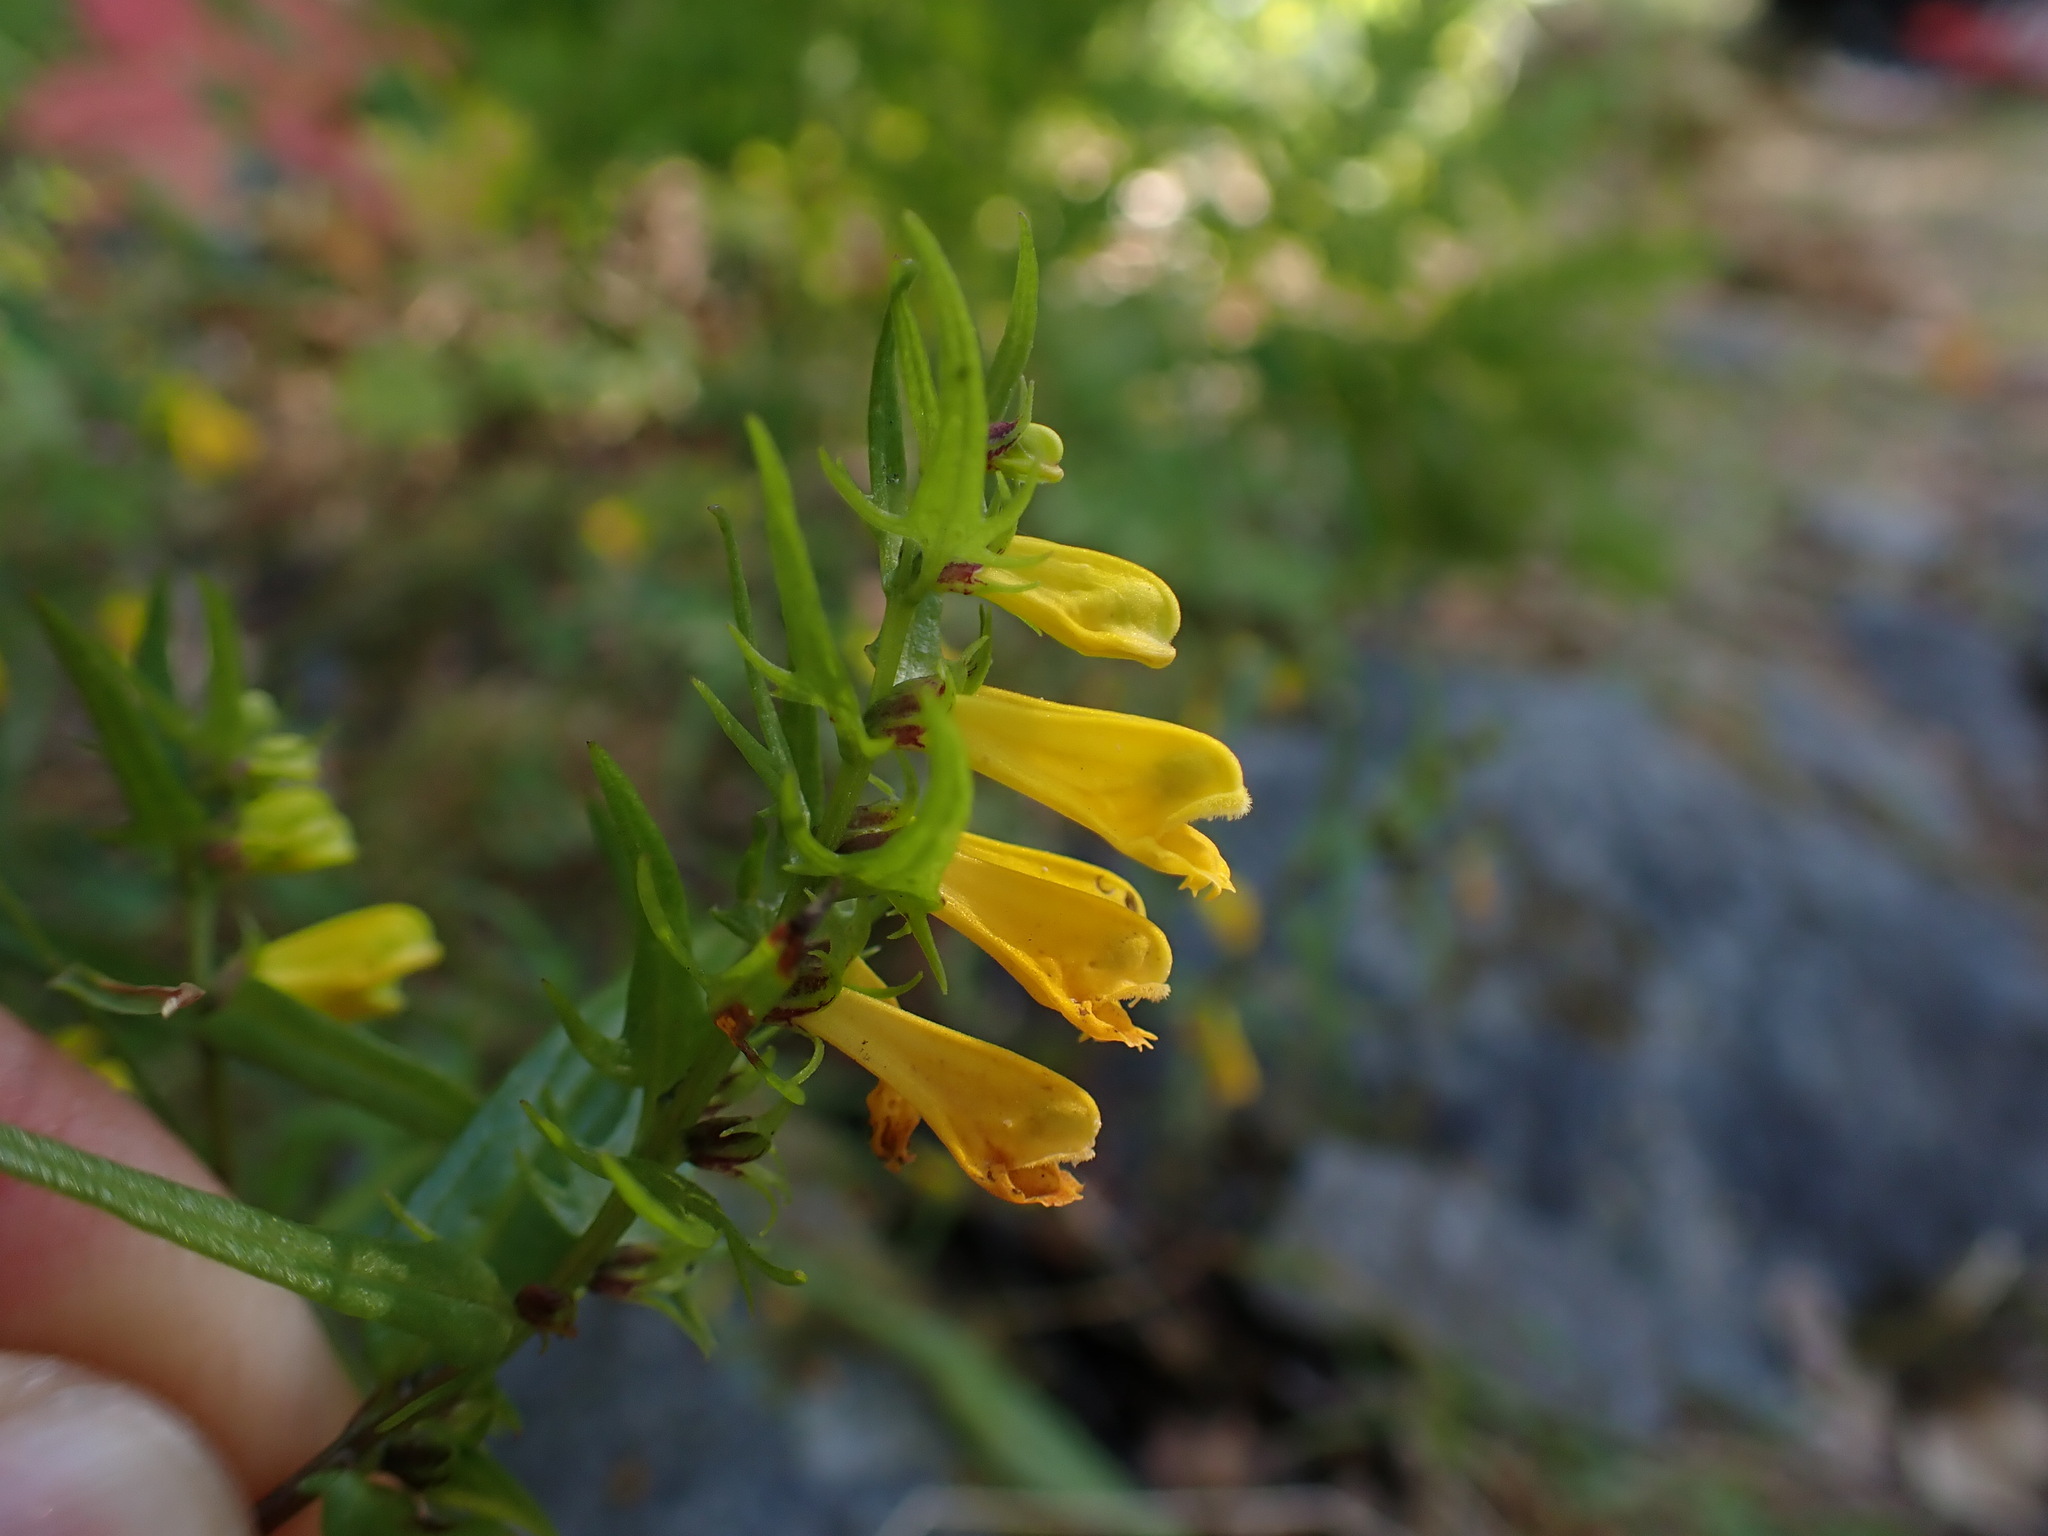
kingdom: Plantae
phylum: Tracheophyta
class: Magnoliopsida
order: Lamiales
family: Orobanchaceae
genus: Melampyrum
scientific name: Melampyrum pratense
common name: Common cow-wheat
